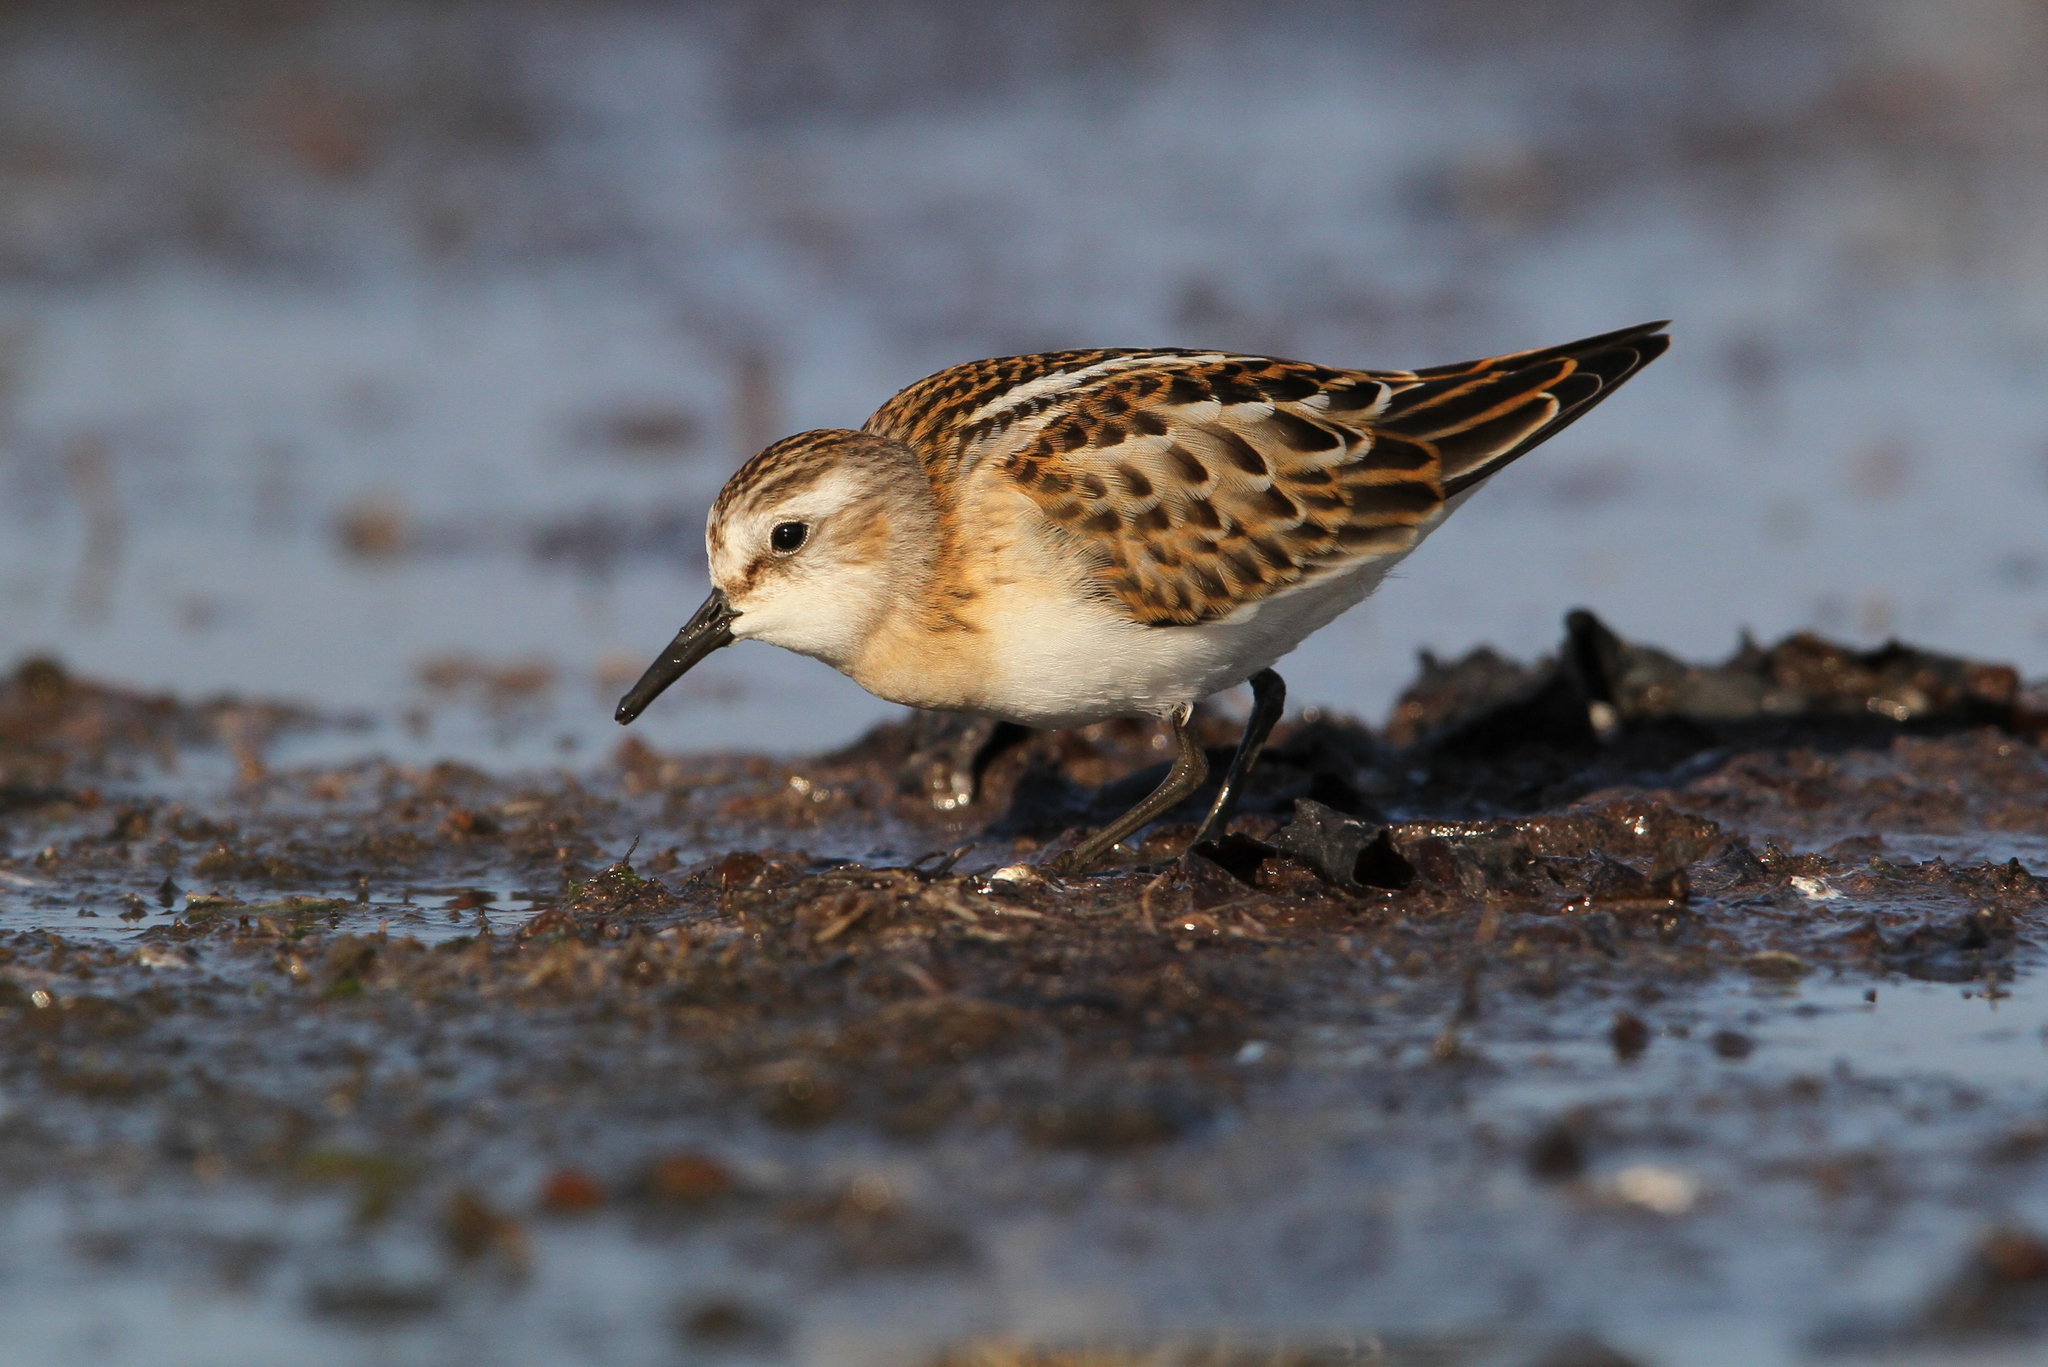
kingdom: Animalia
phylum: Chordata
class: Aves
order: Charadriiformes
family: Scolopacidae
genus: Calidris
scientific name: Calidris minuta
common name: Little stint
